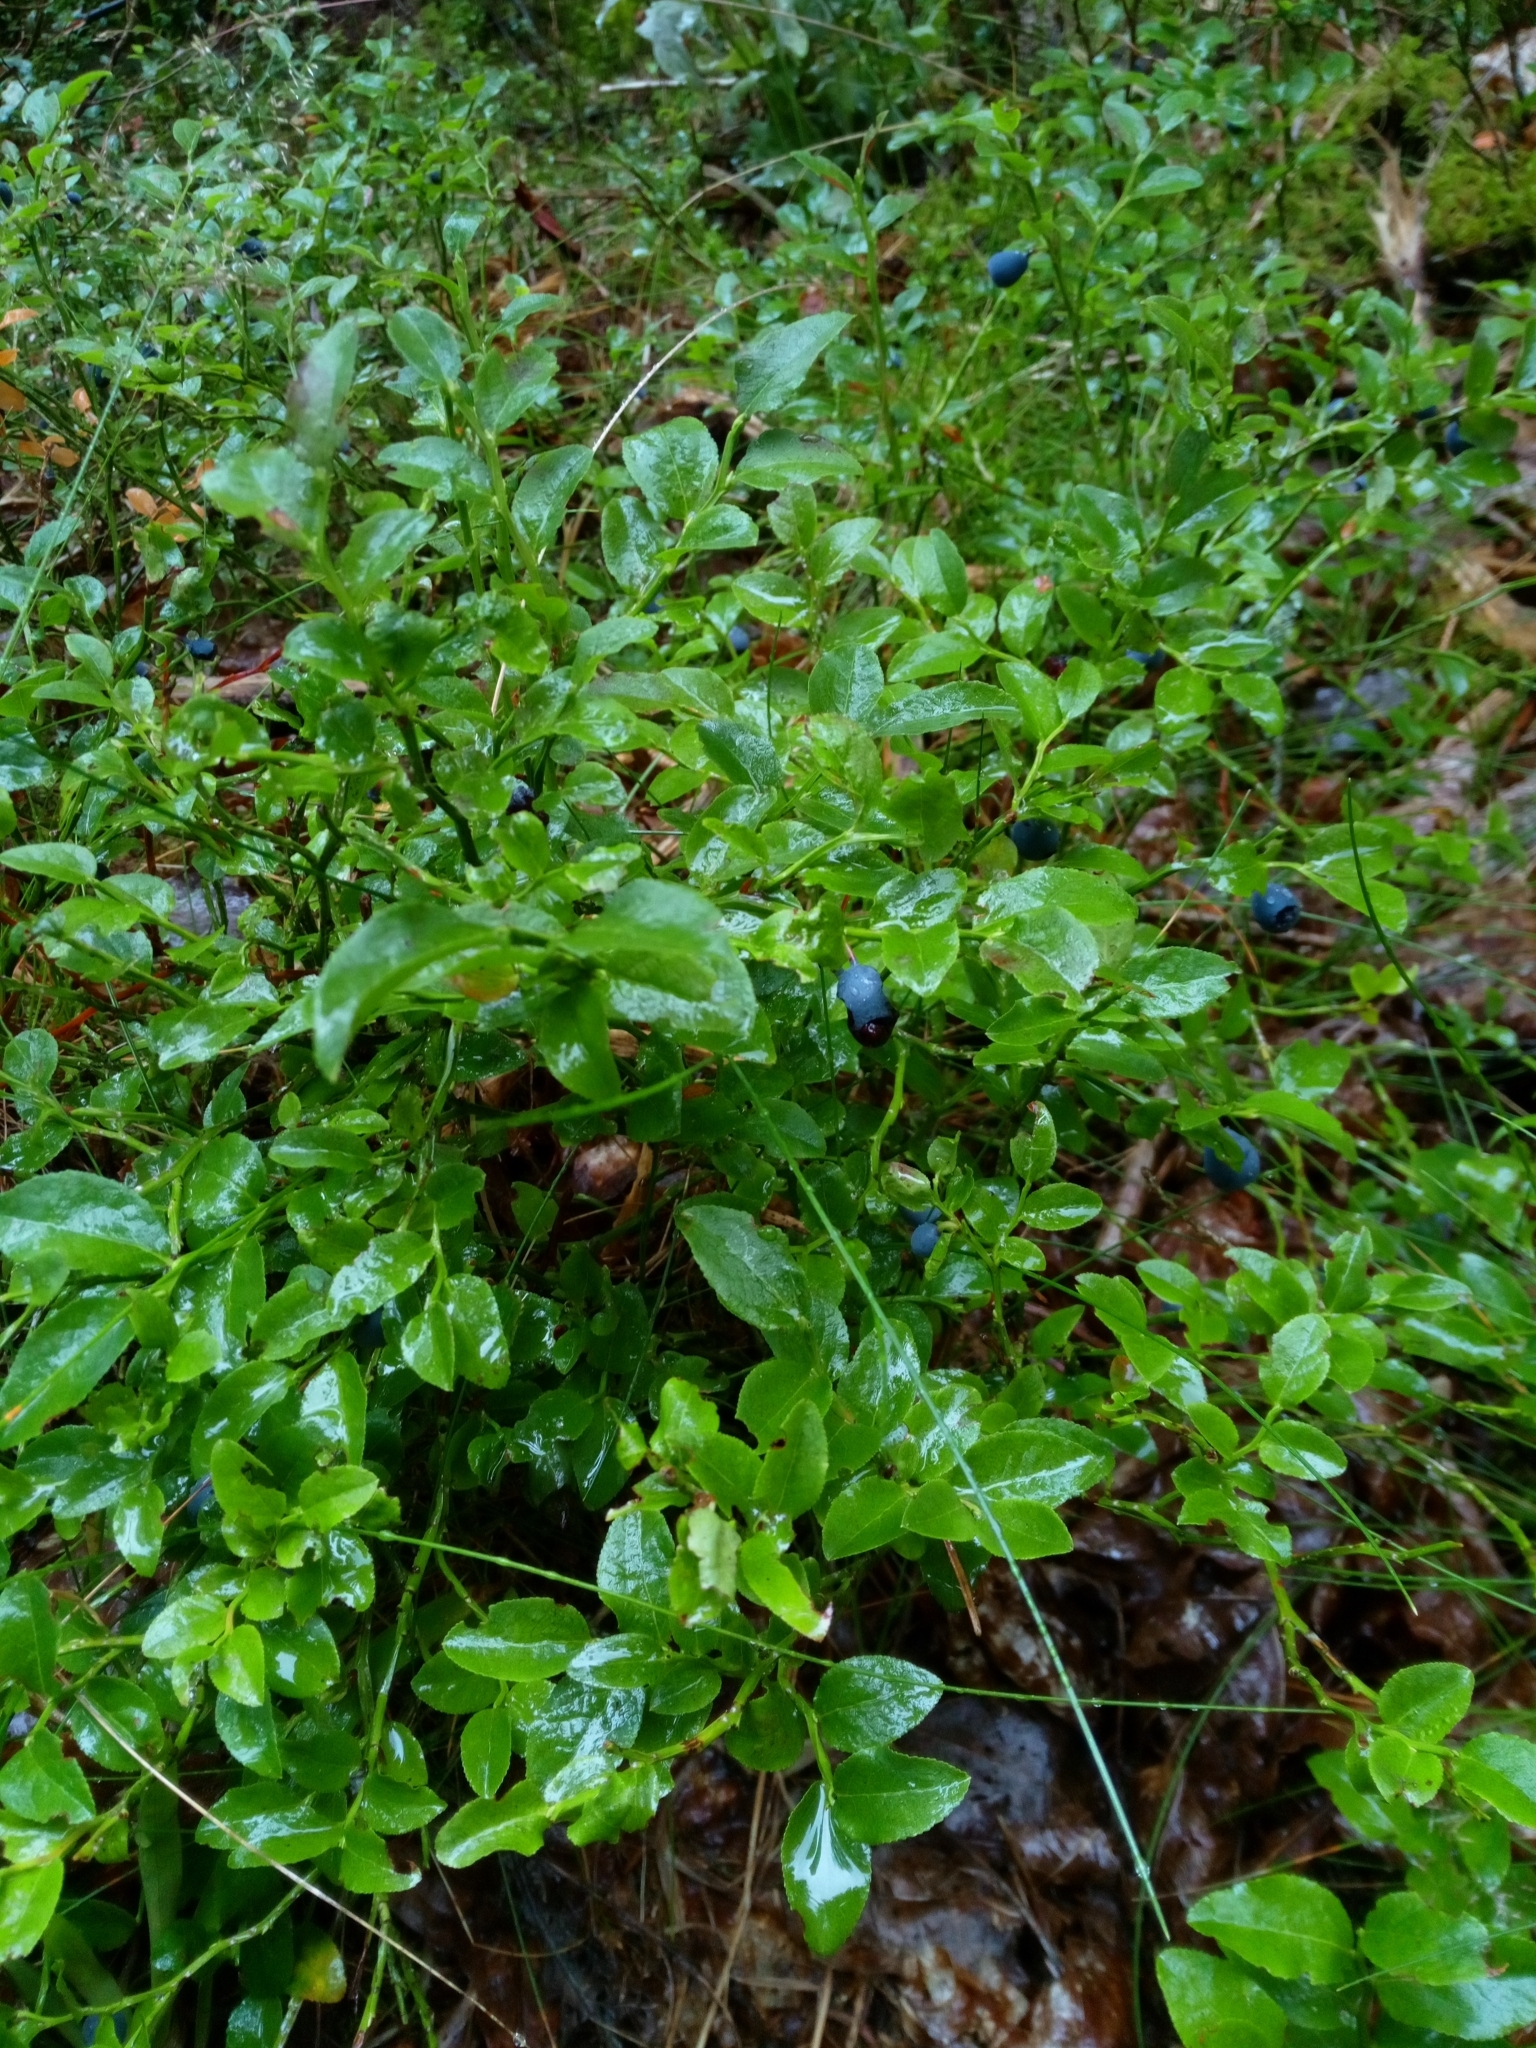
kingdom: Plantae
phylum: Tracheophyta
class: Magnoliopsida
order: Ericales
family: Ericaceae
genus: Vaccinium
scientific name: Vaccinium myrtillus
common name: Bilberry
